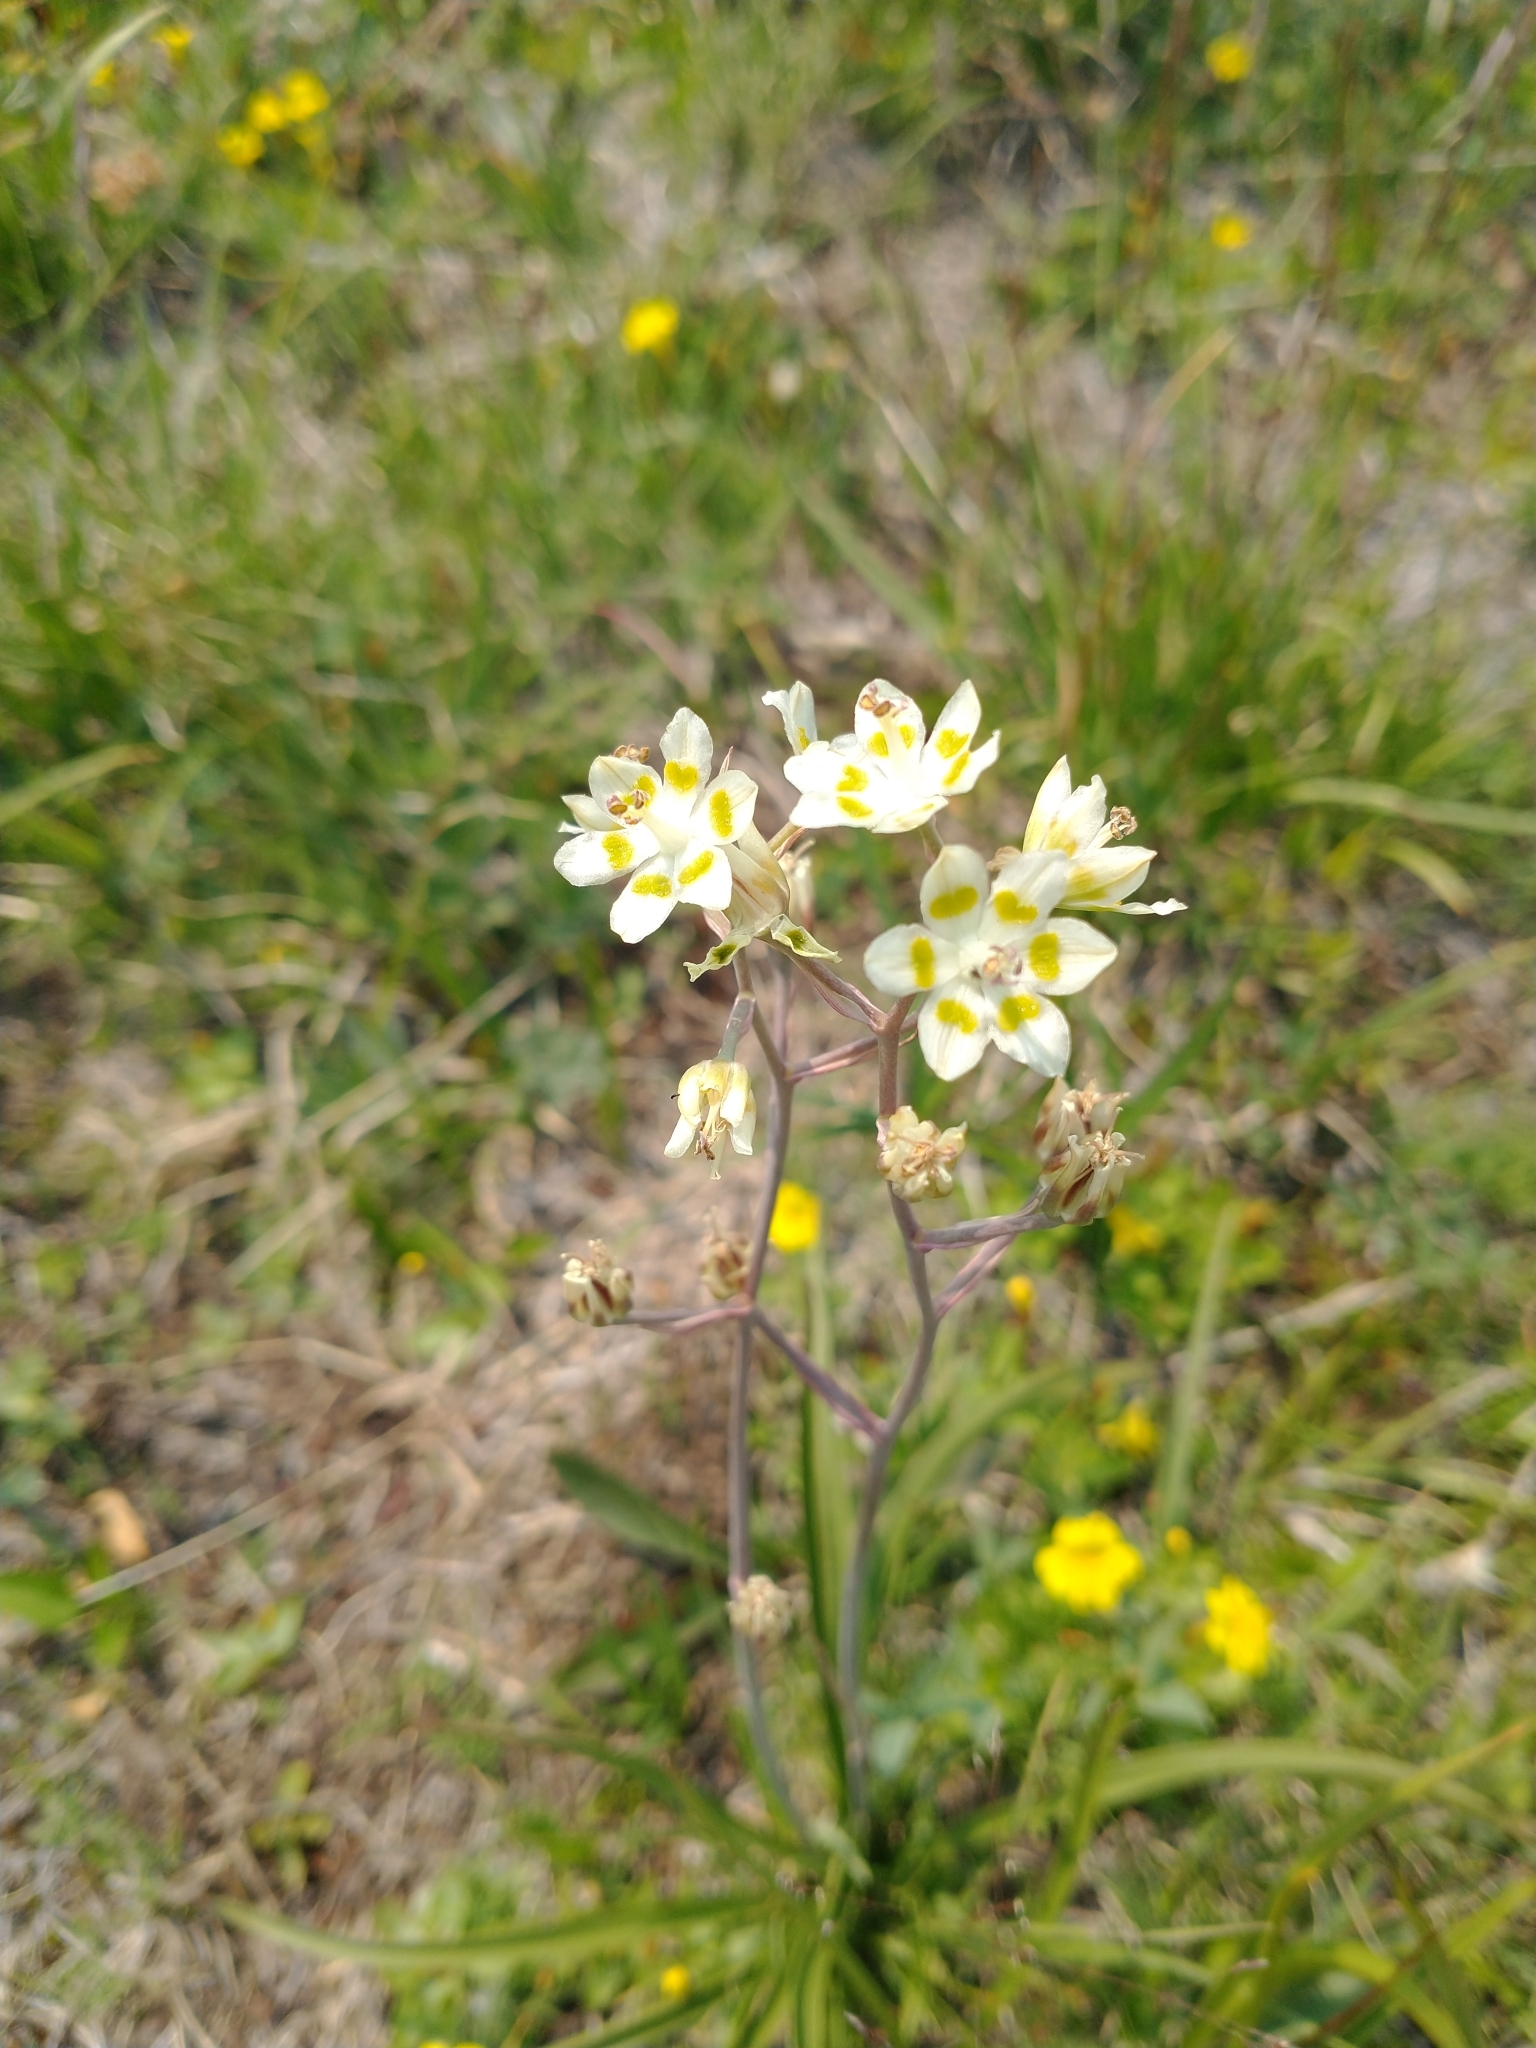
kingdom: Plantae
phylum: Tracheophyta
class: Liliopsida
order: Liliales
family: Melanthiaceae
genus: Anticlea
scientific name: Anticlea elegans
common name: Mountain death camas
